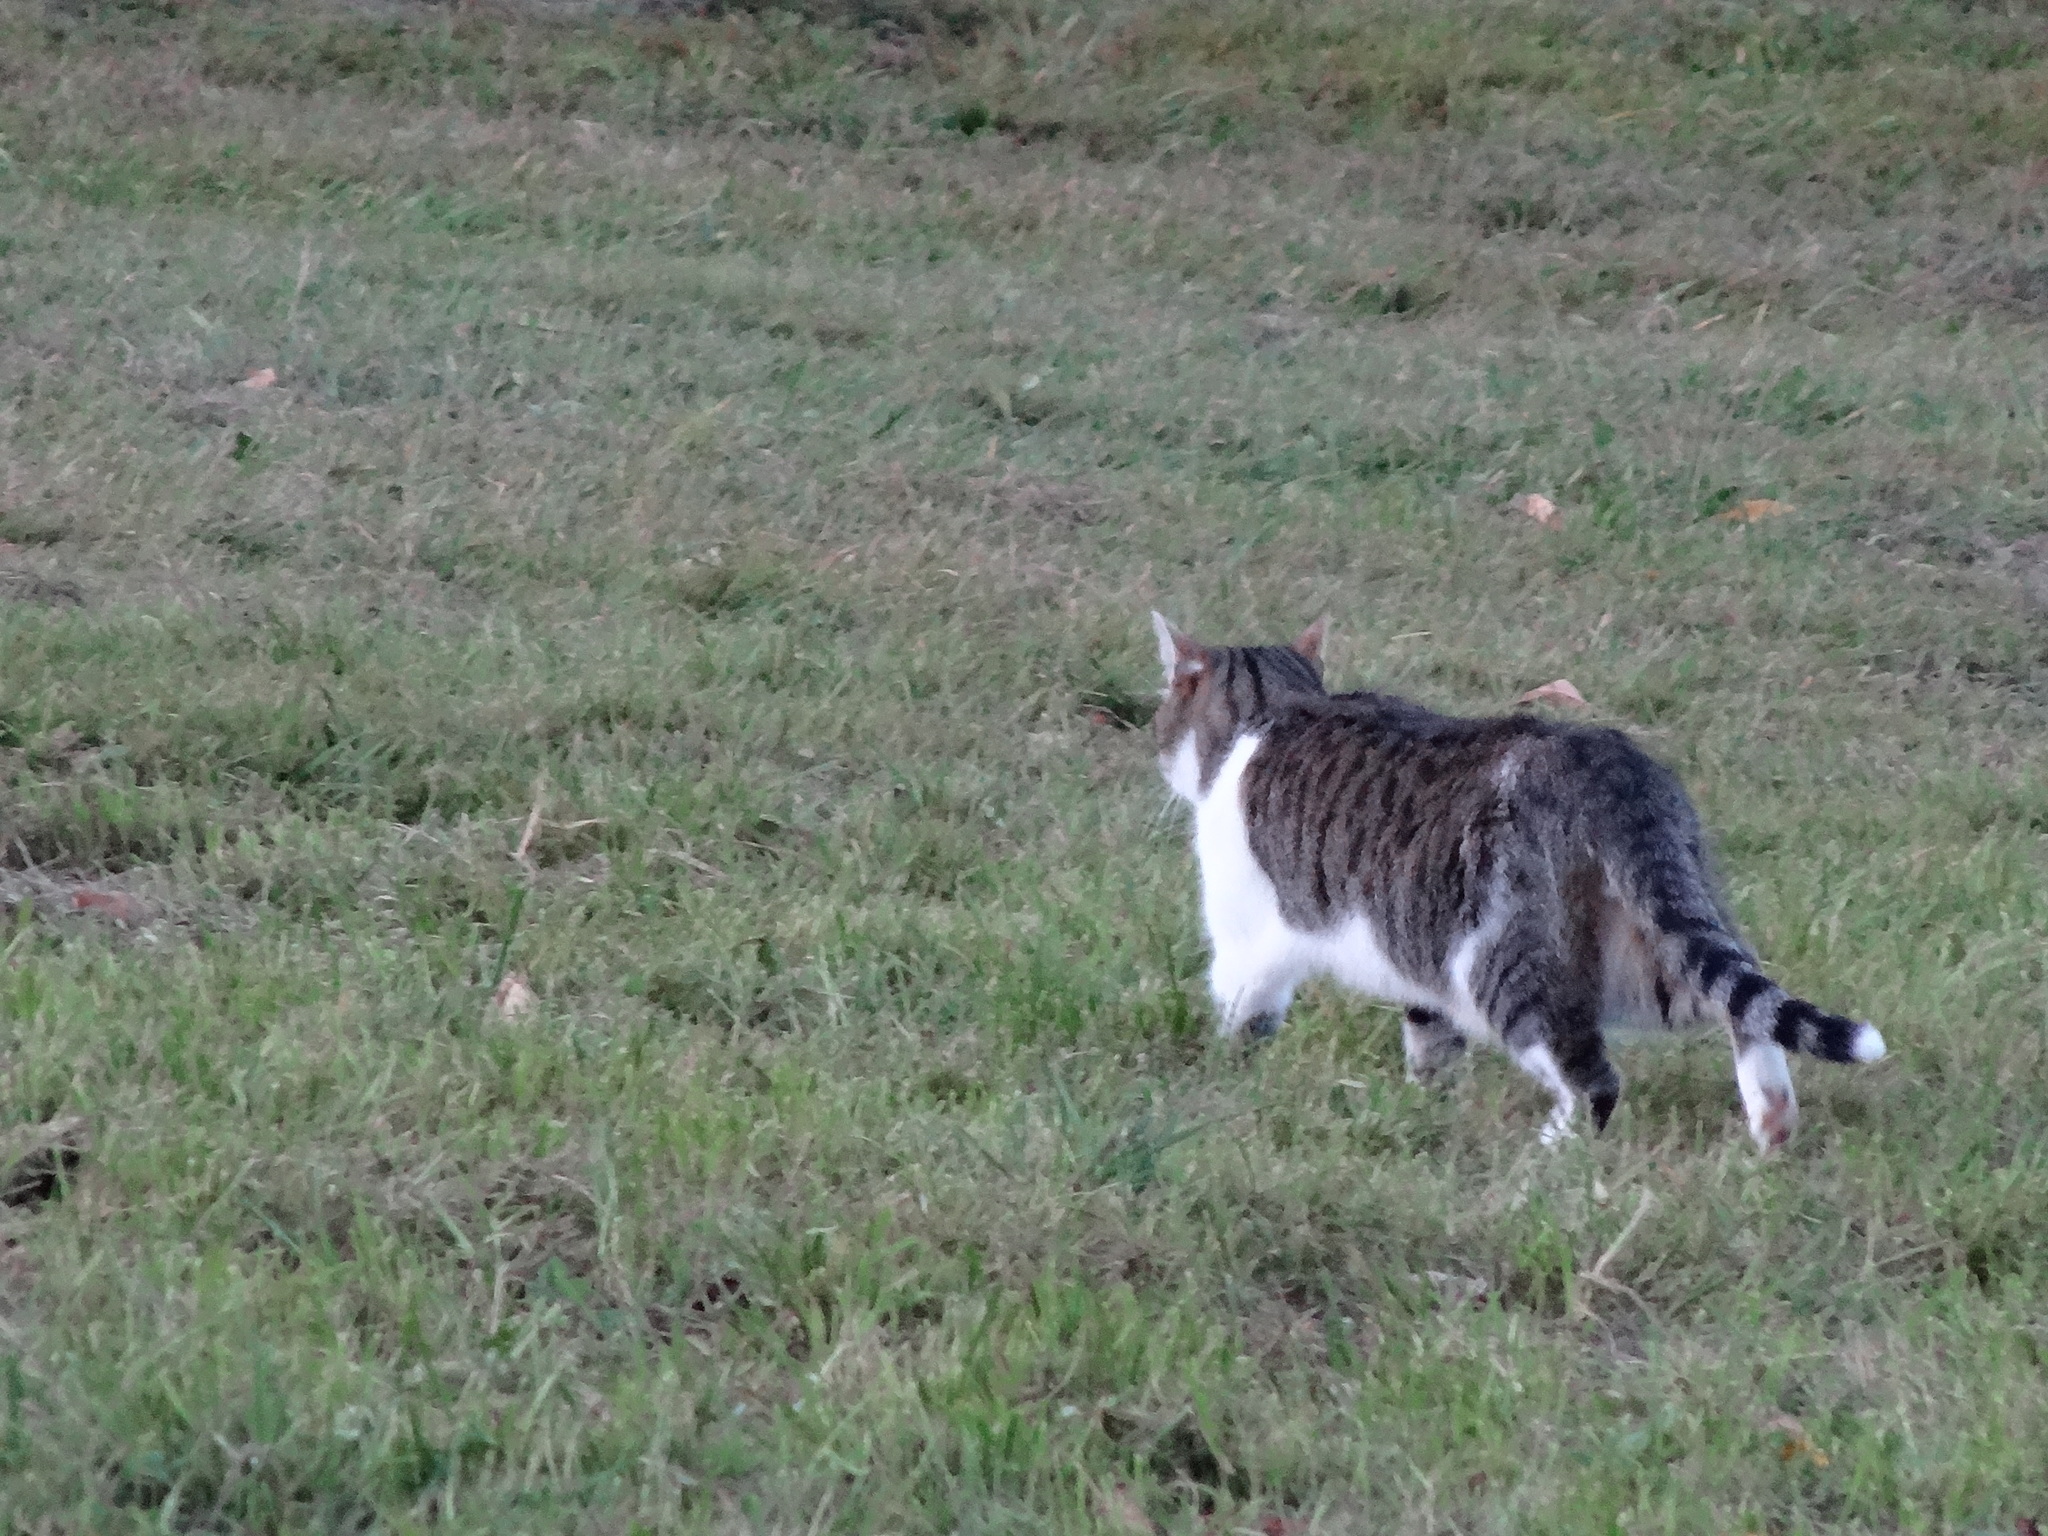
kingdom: Animalia
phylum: Chordata
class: Mammalia
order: Carnivora
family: Felidae
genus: Felis
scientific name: Felis catus
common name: Domestic cat
